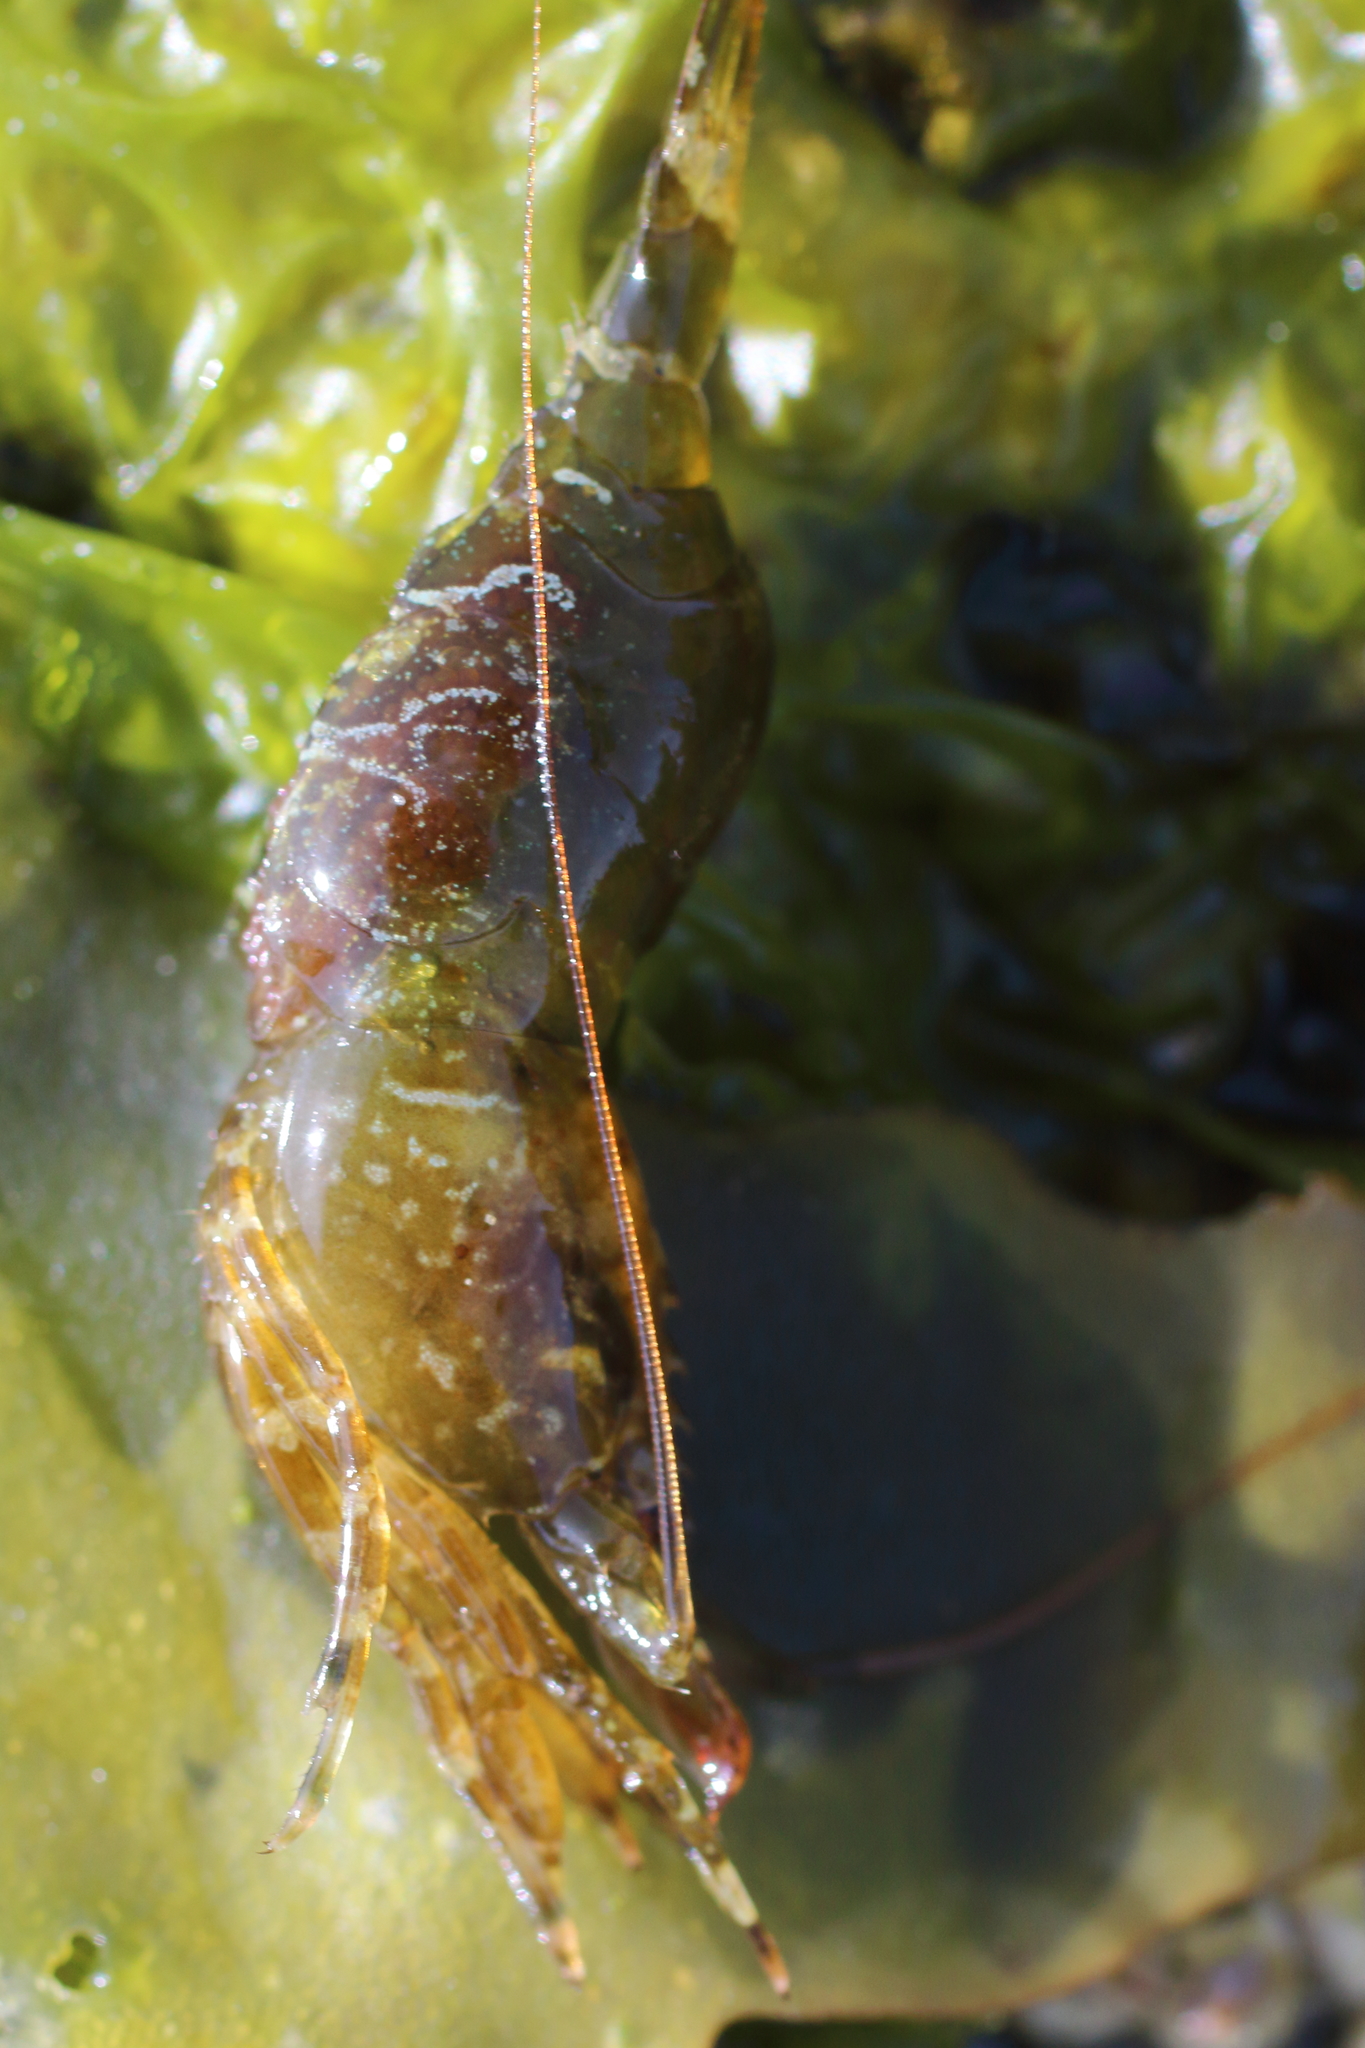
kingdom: Animalia
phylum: Arthropoda
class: Malacostraca
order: Decapoda
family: Thoridae
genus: Heptacarpus
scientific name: Heptacarpus brevirostris
